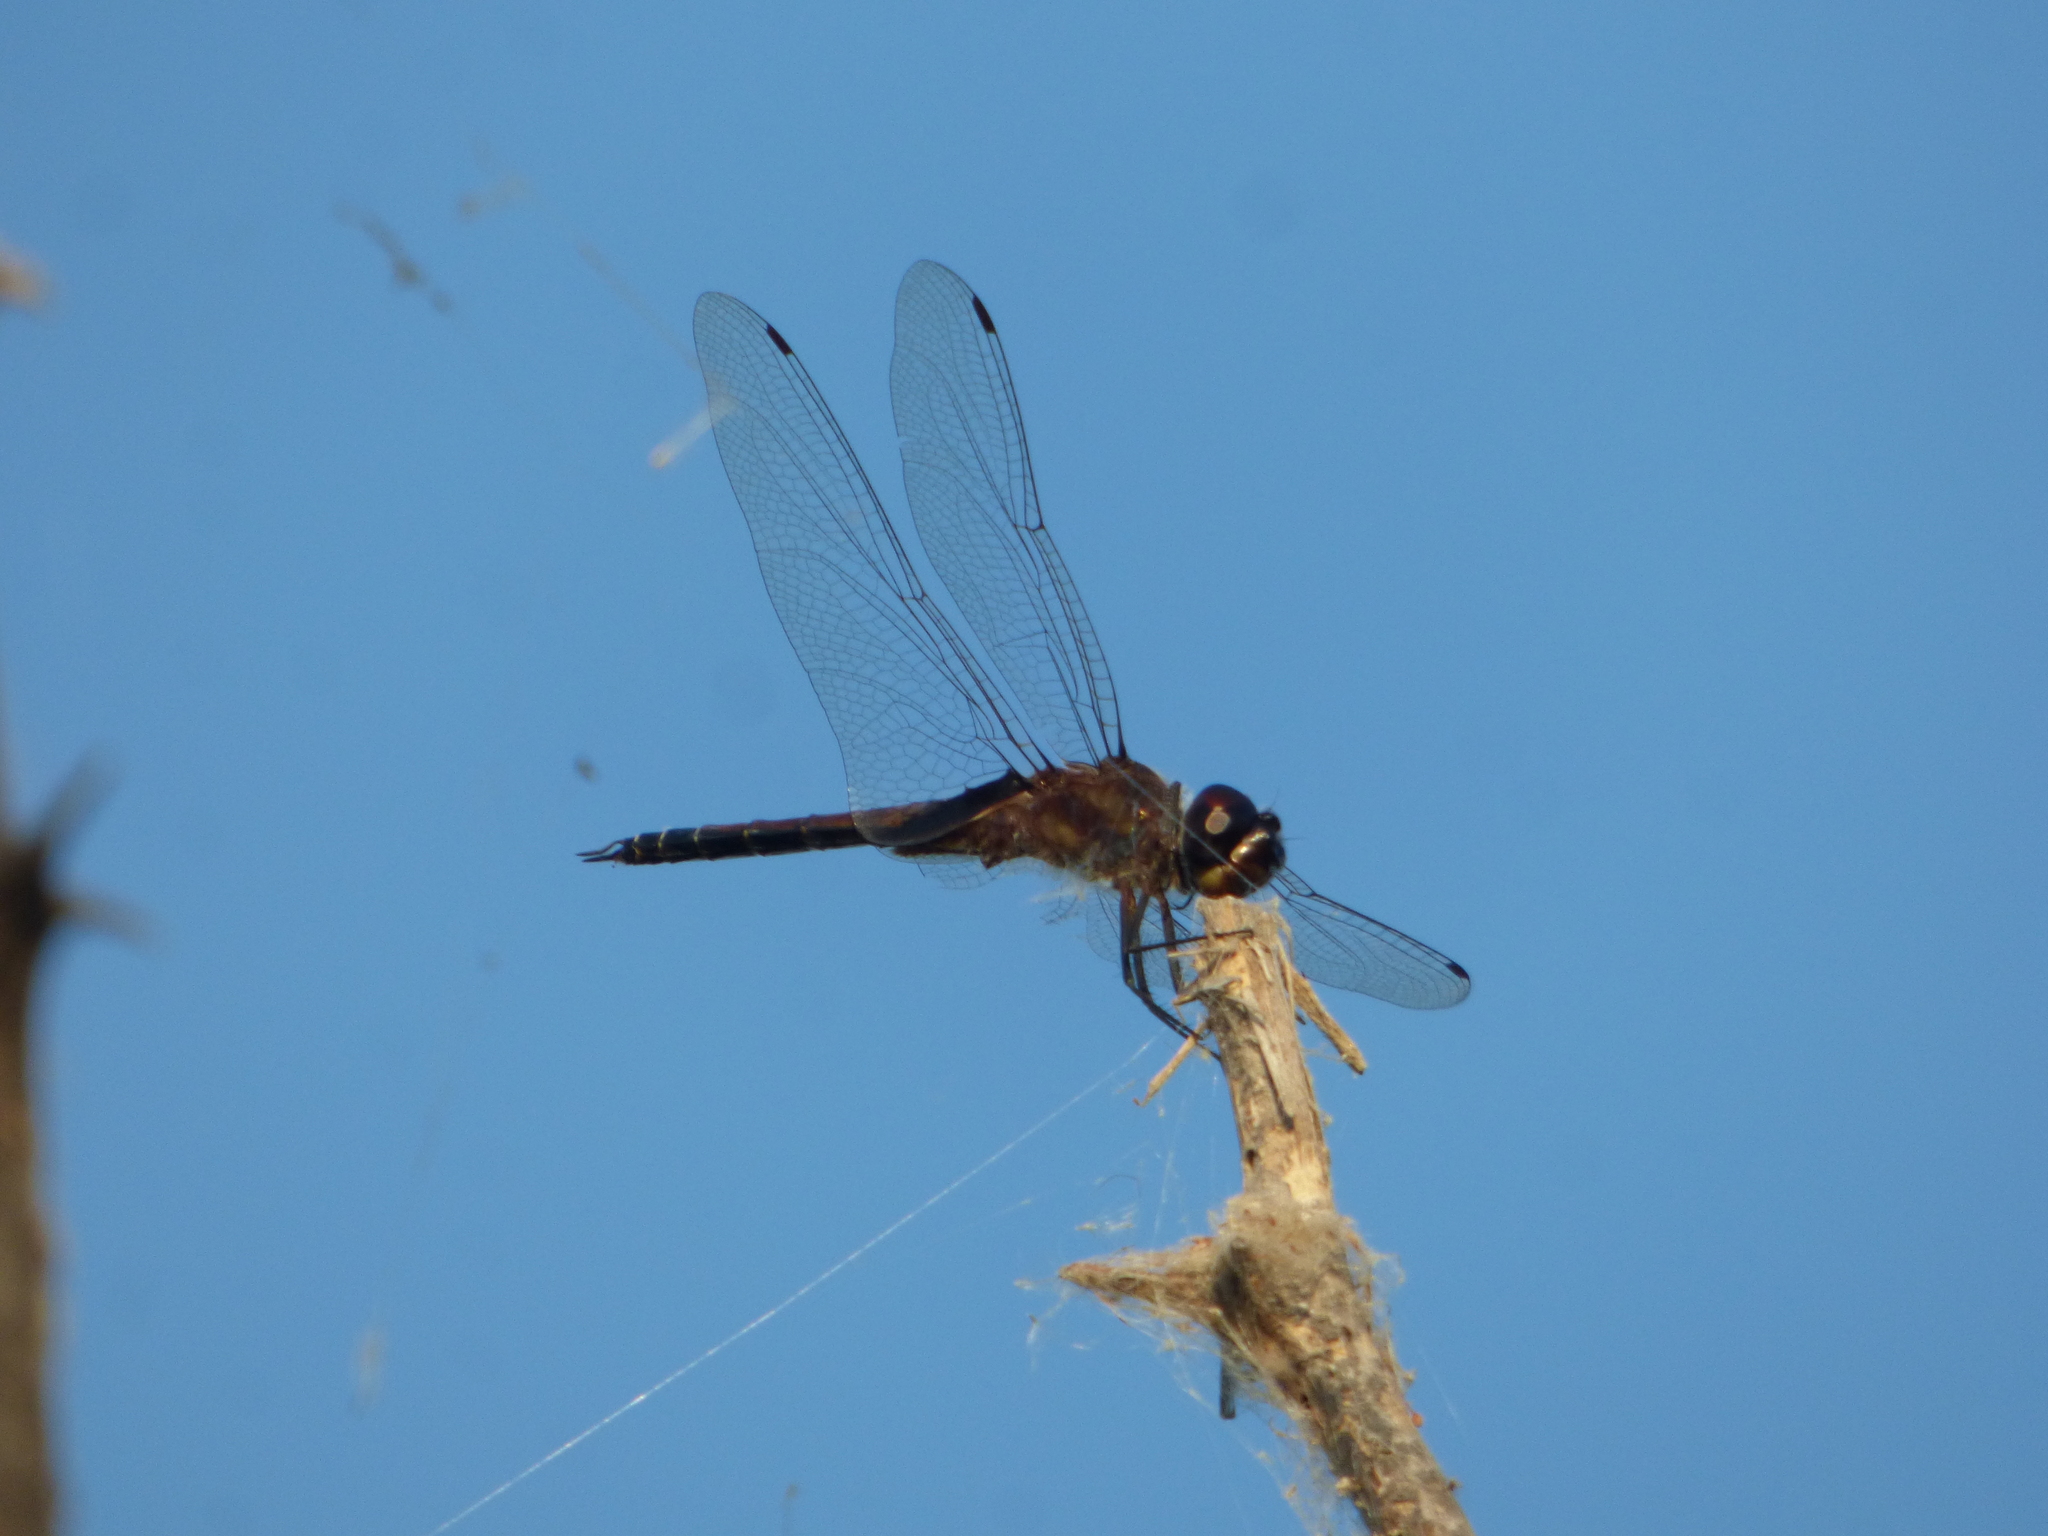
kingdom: Animalia
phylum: Arthropoda
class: Insecta
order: Odonata
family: Libellulidae
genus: Tramea
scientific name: Tramea cophysa
